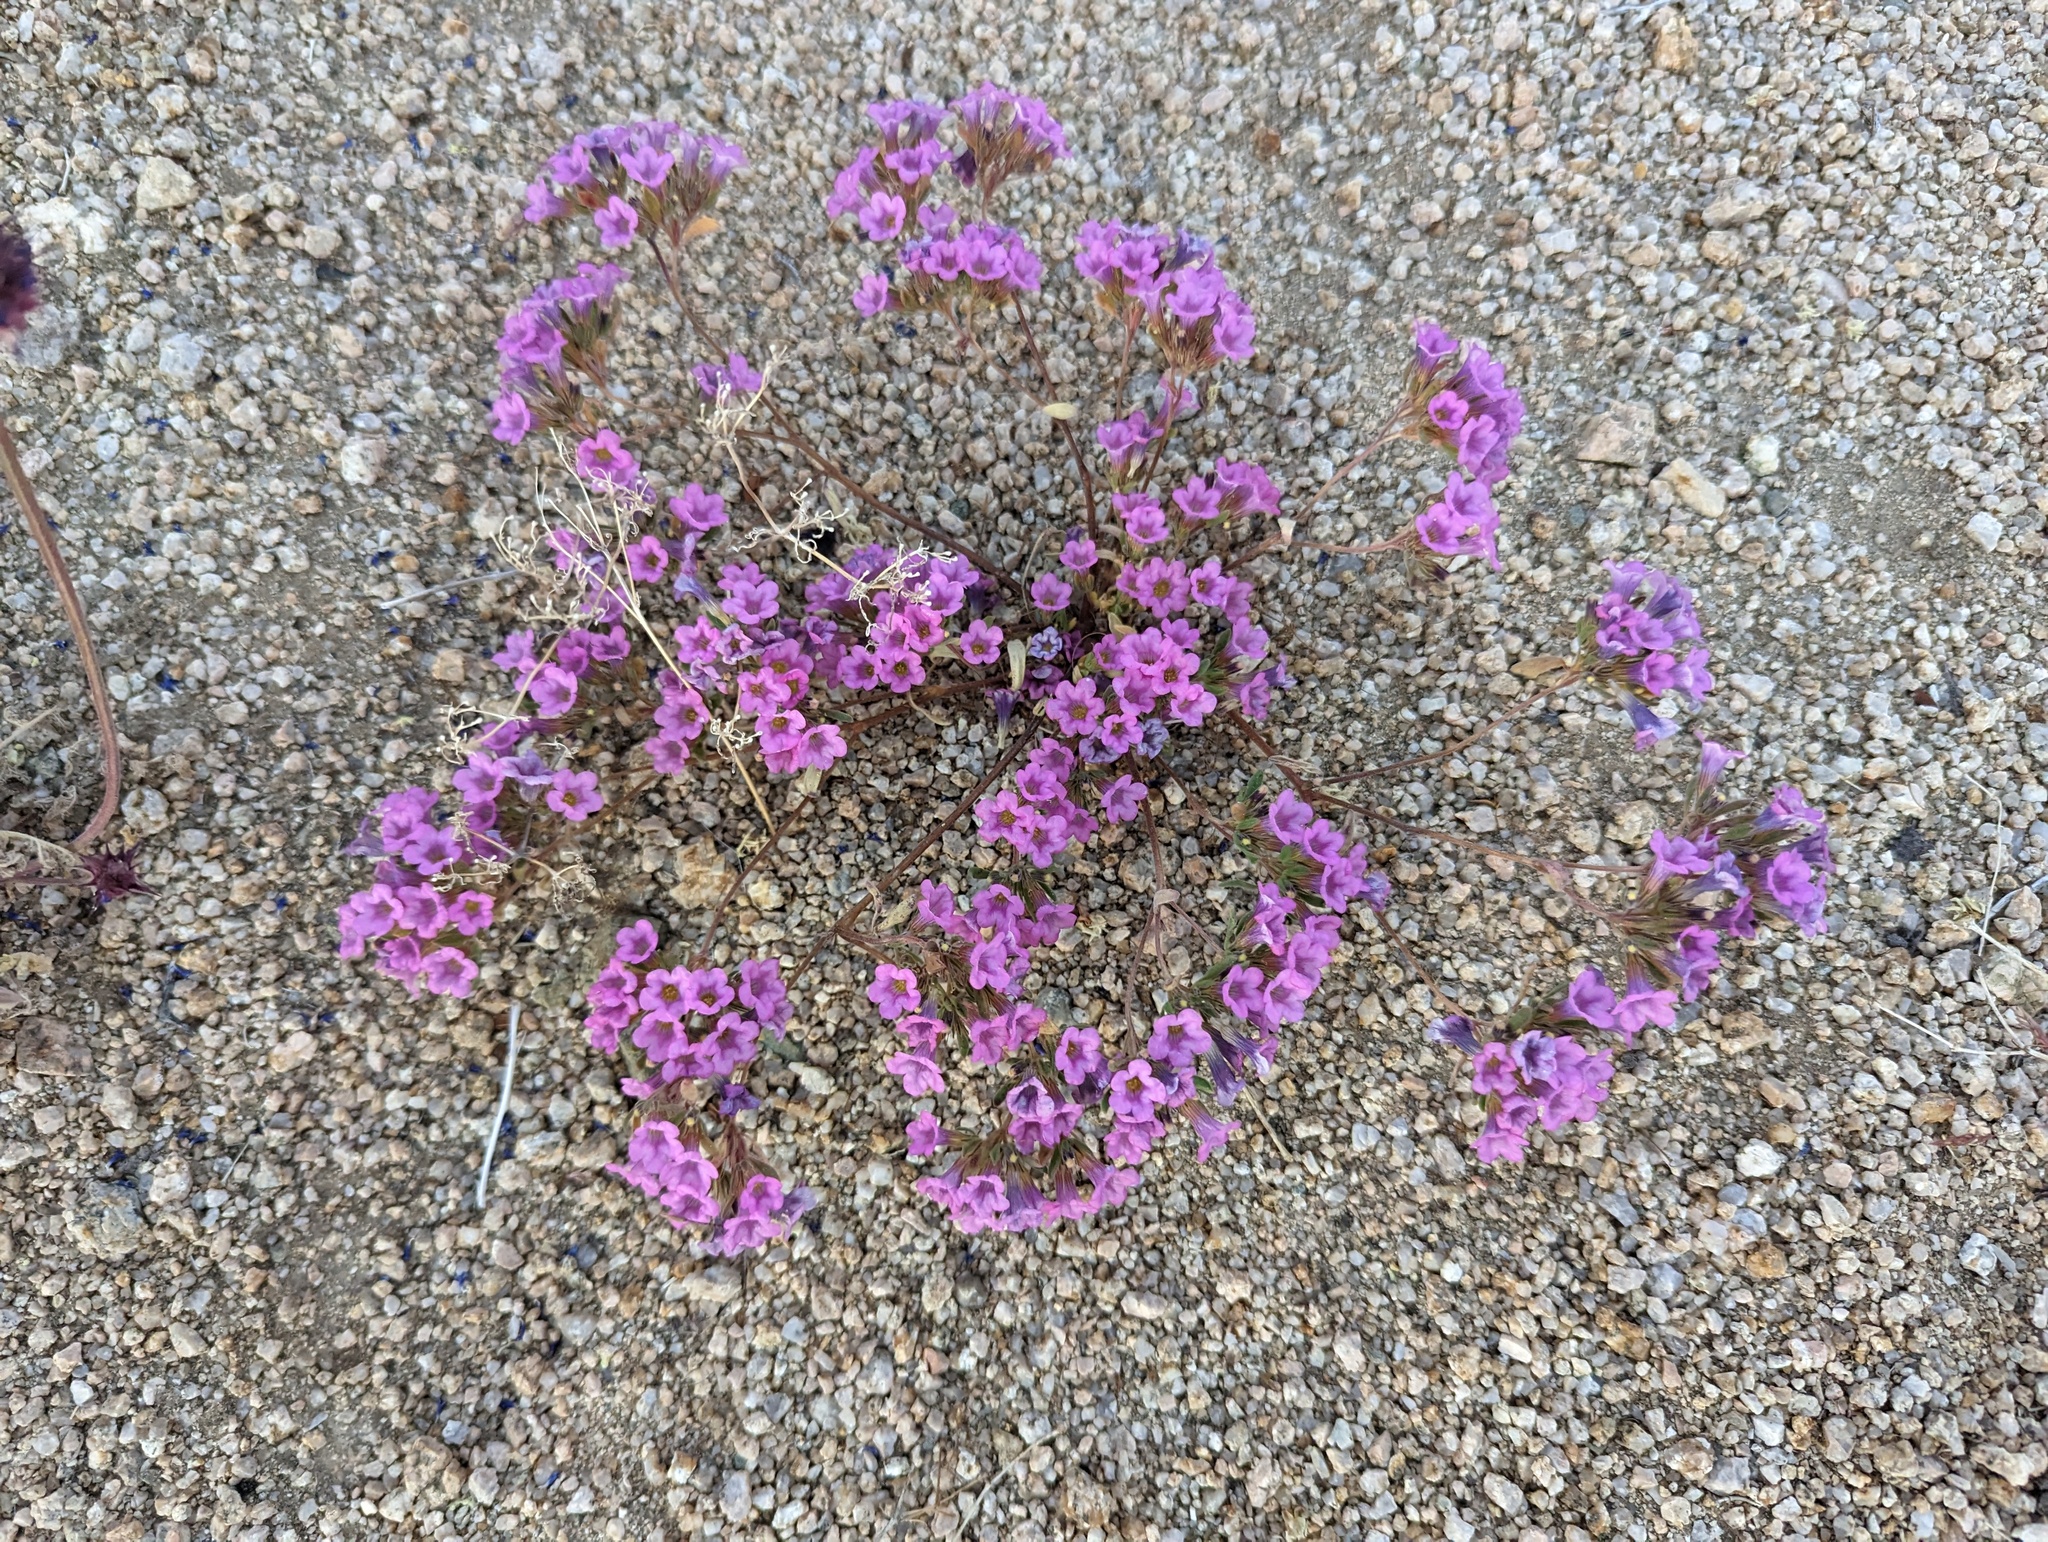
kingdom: Plantae
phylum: Tracheophyta
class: Magnoliopsida
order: Boraginales
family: Namaceae
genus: Nama
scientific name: Nama demissa
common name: Leafy nama
